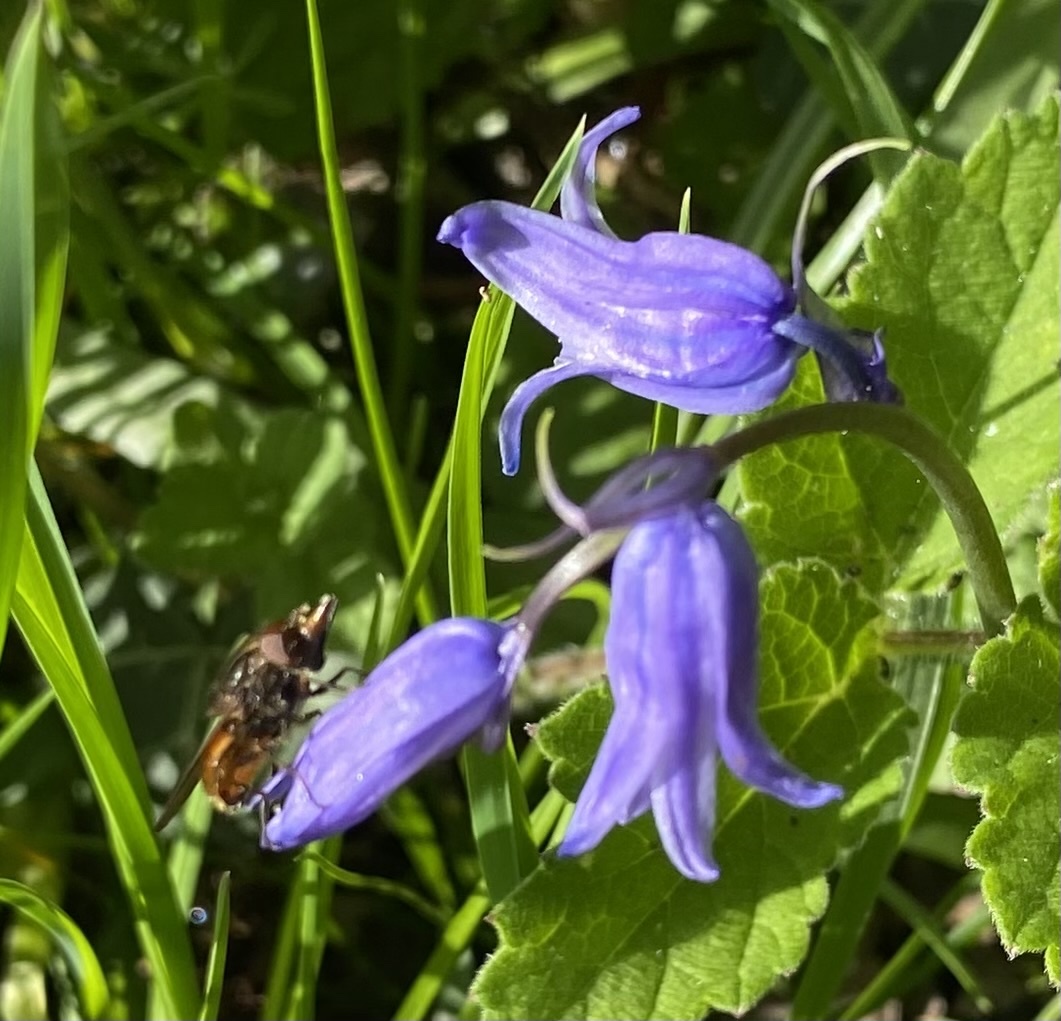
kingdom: Animalia
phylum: Arthropoda
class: Insecta
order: Diptera
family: Syrphidae
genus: Rhingia
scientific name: Rhingia
